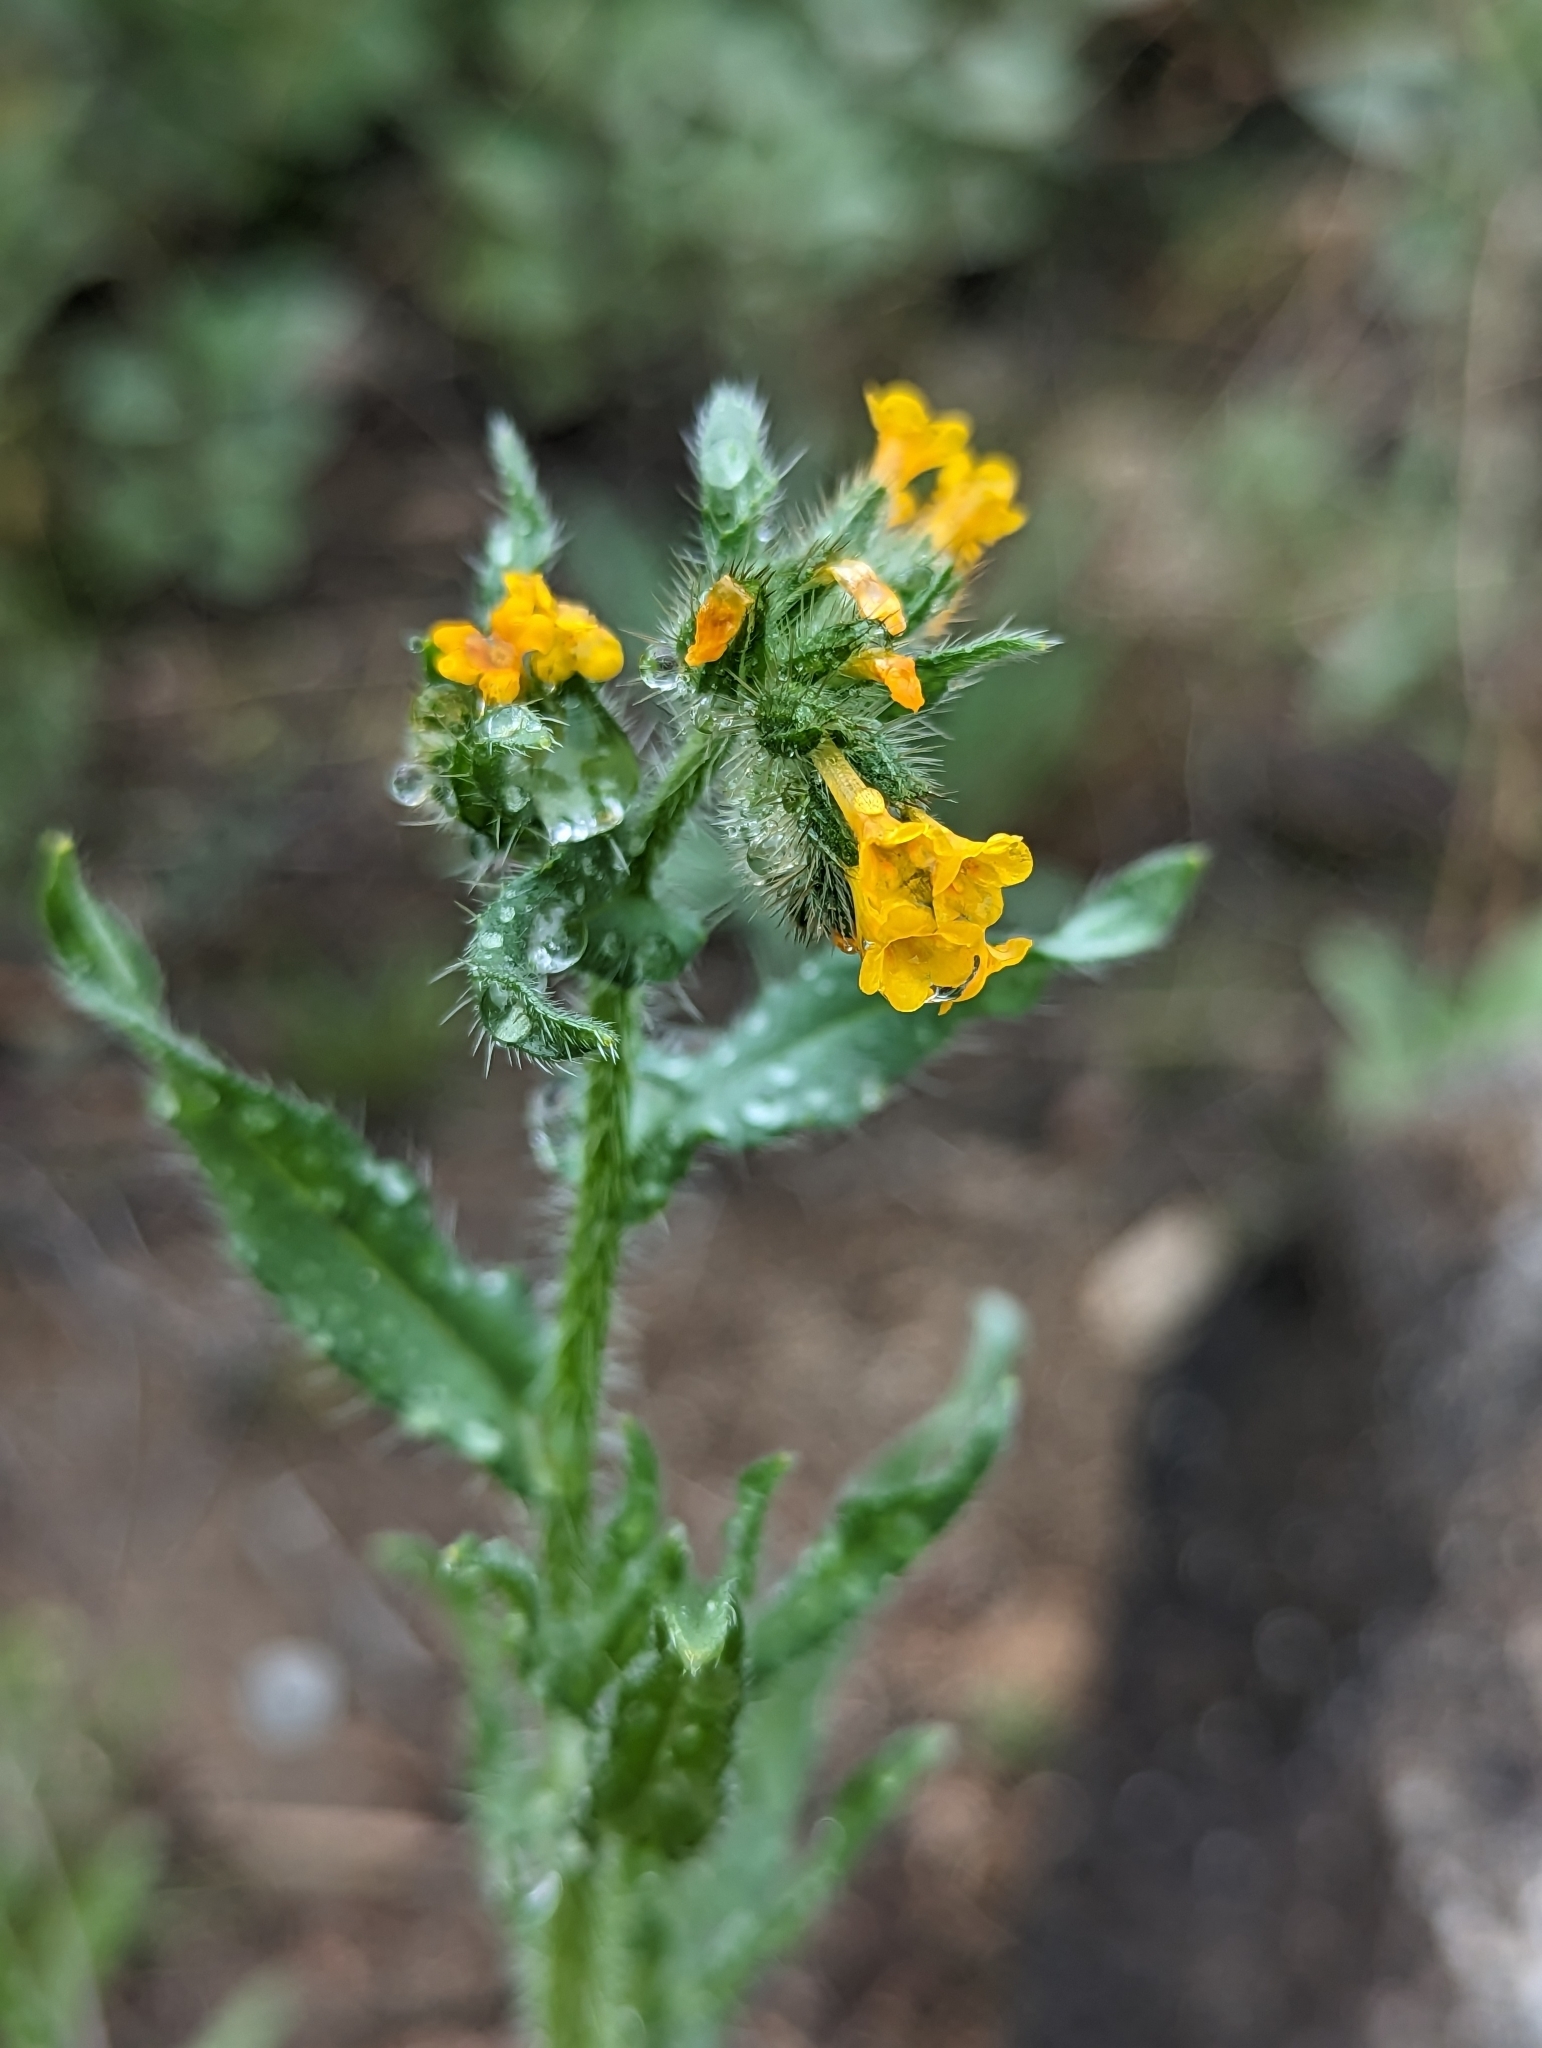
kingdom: Plantae
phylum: Tracheophyta
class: Magnoliopsida
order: Boraginales
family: Boraginaceae
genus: Amsinckia
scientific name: Amsinckia menziesii
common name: Menzies' fiddleneck
